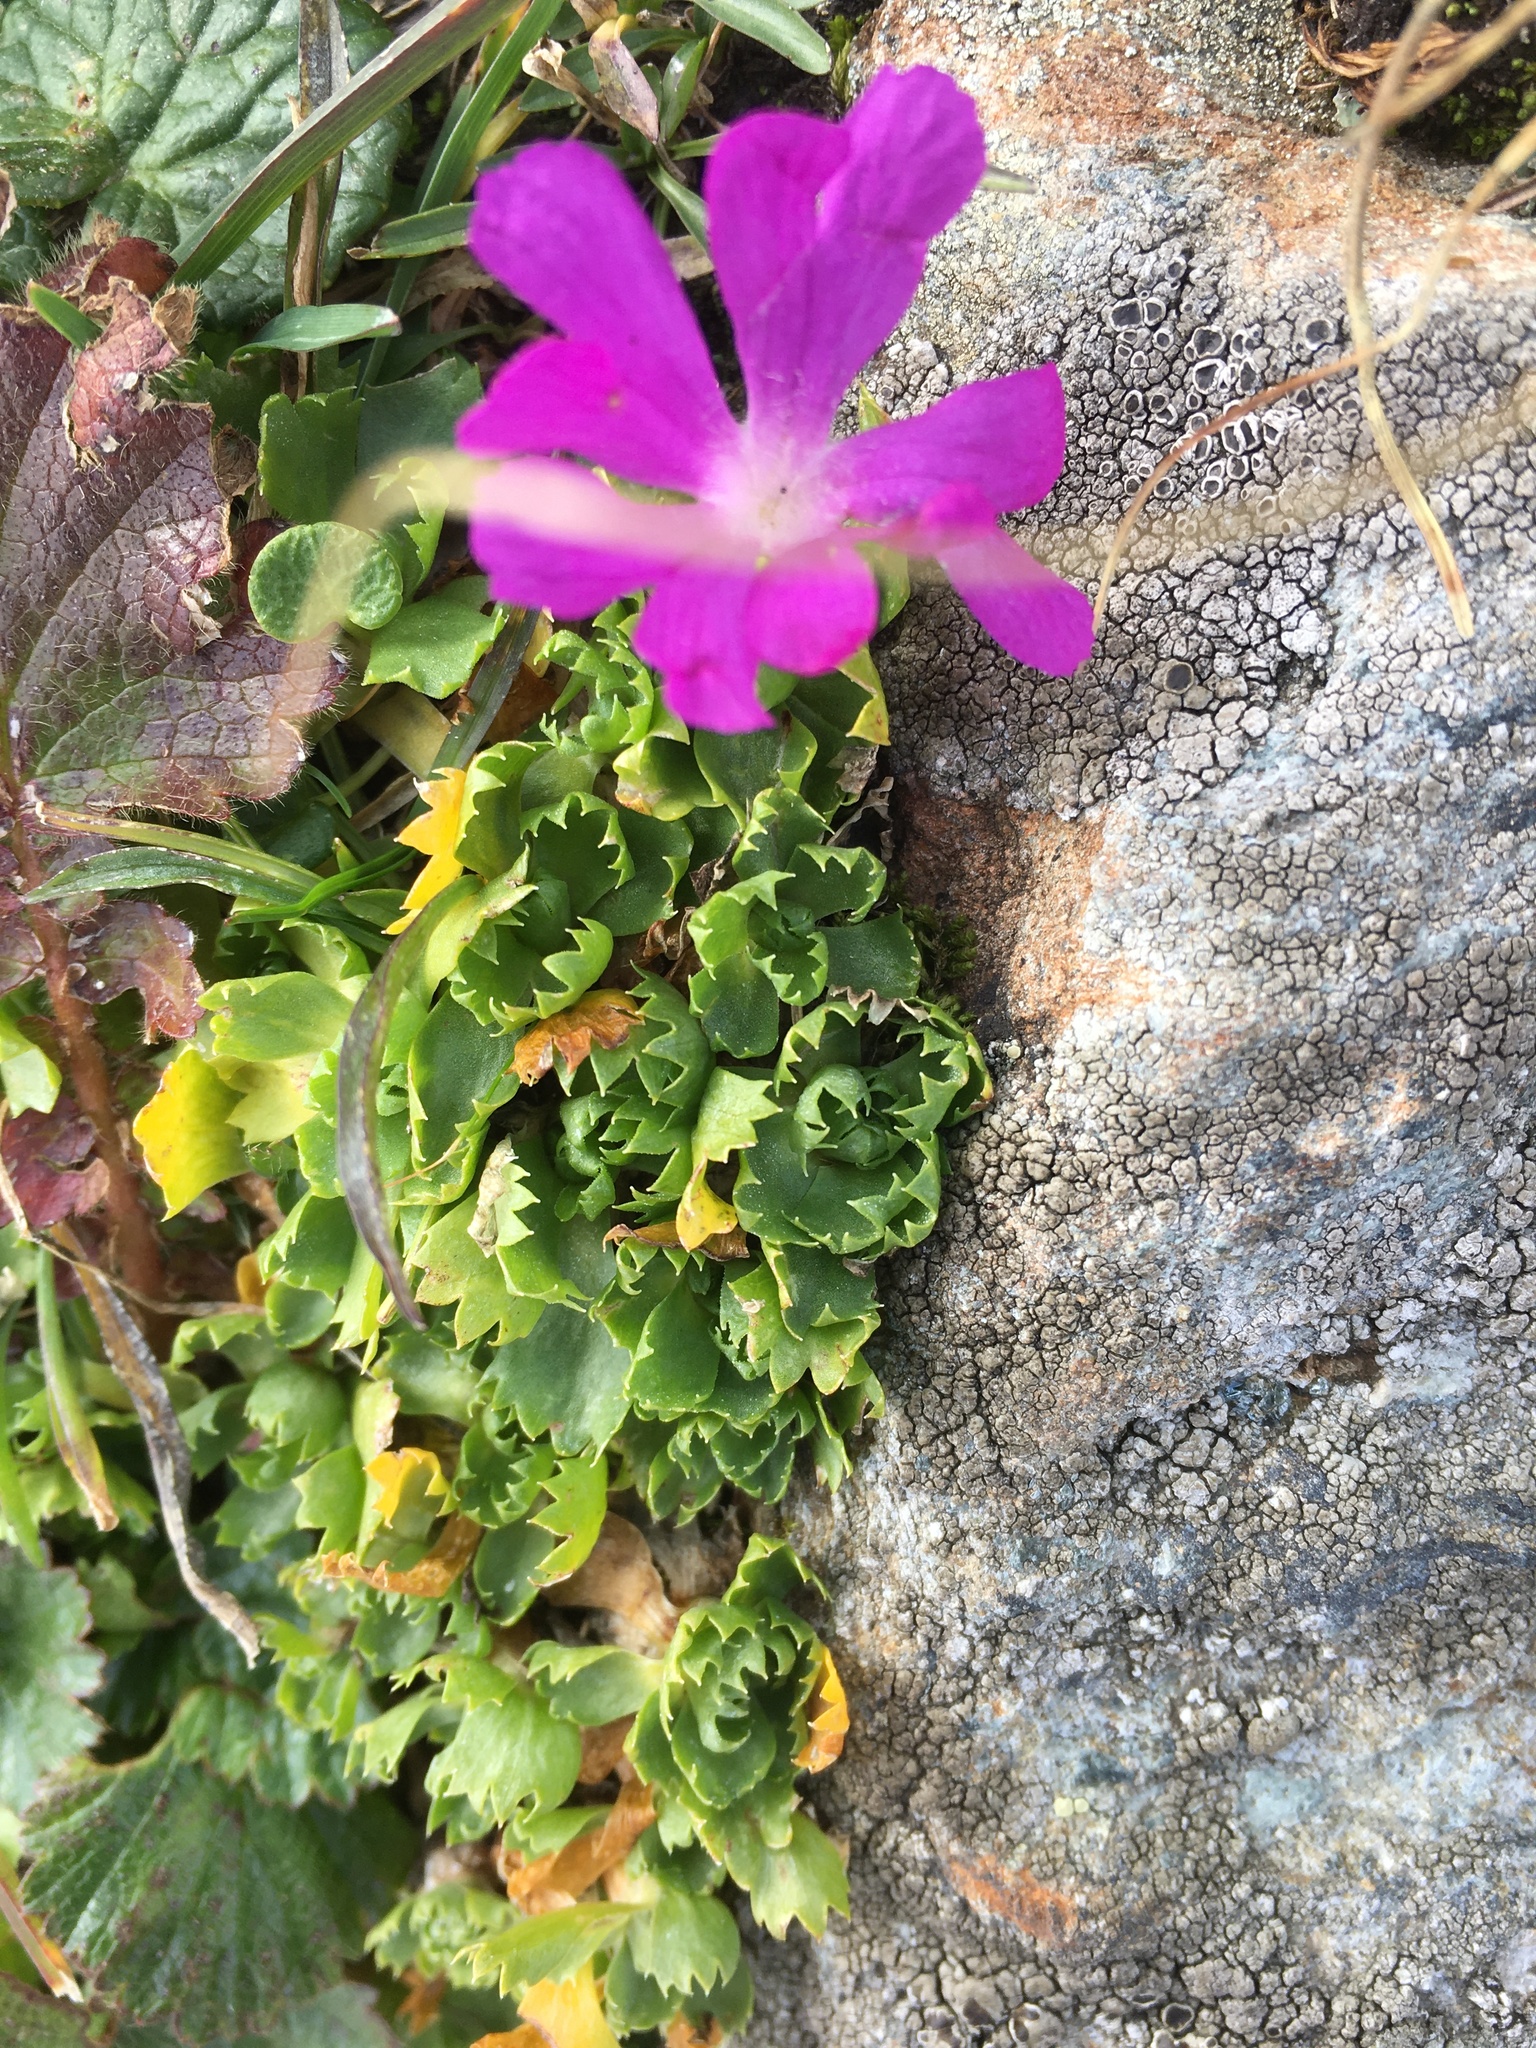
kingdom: Plantae
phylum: Tracheophyta
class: Magnoliopsida
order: Ericales
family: Primulaceae
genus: Primula
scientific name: Primula minima
